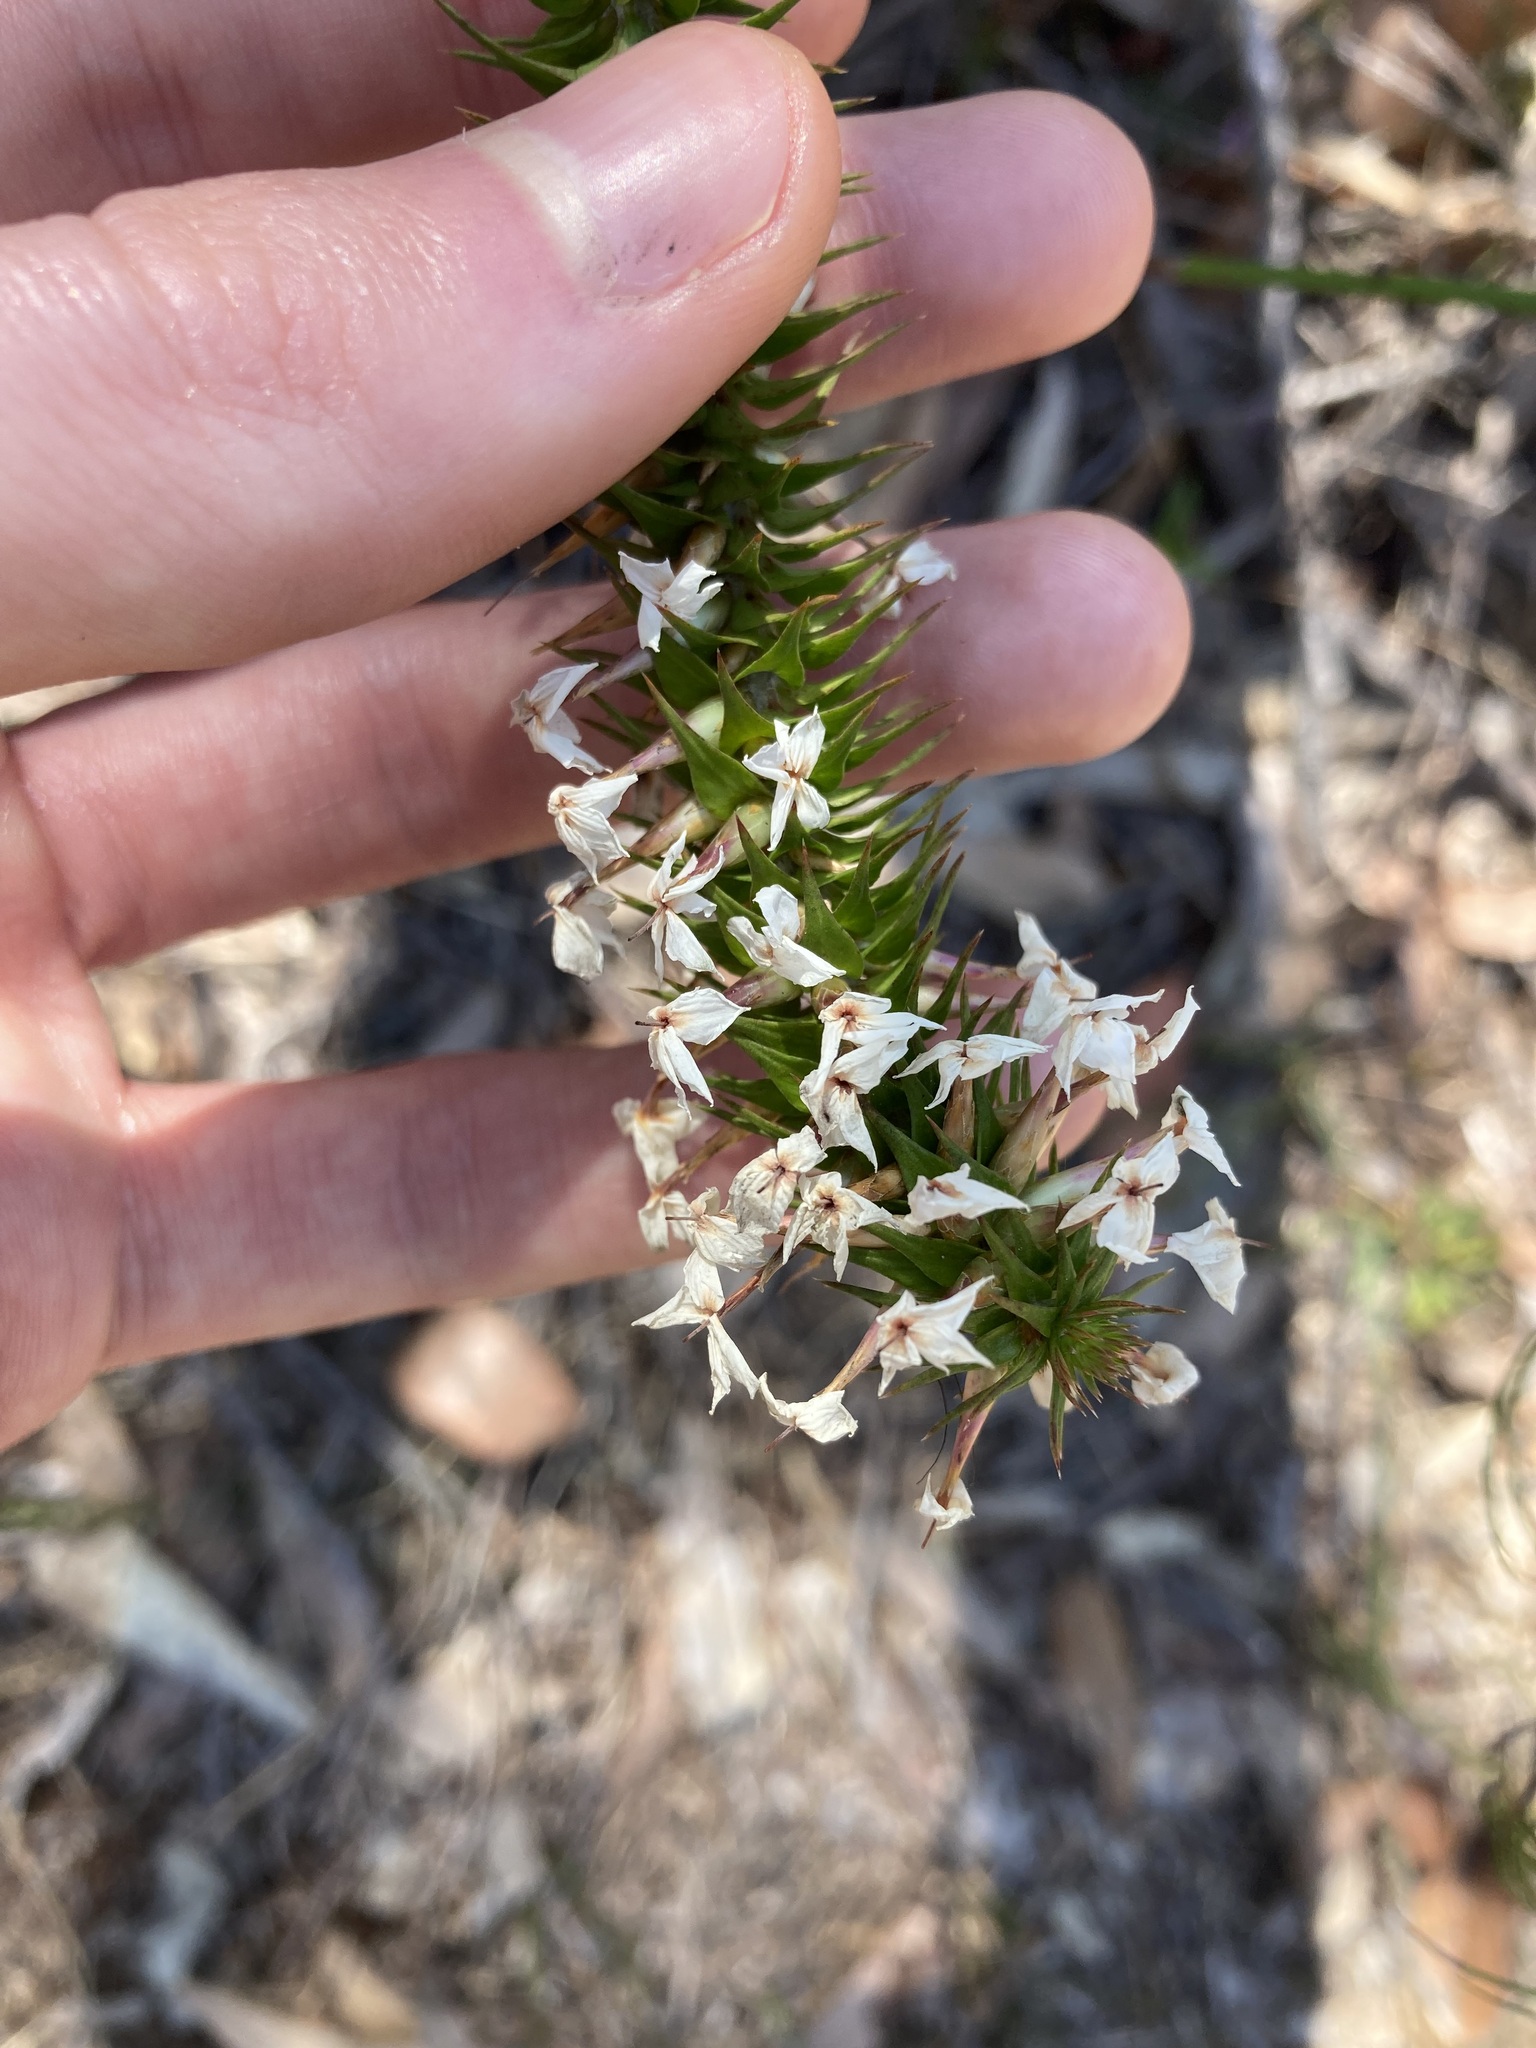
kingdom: Plantae
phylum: Tracheophyta
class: Magnoliopsida
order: Ericales
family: Ericaceae
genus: Woollsia
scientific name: Woollsia pungens
